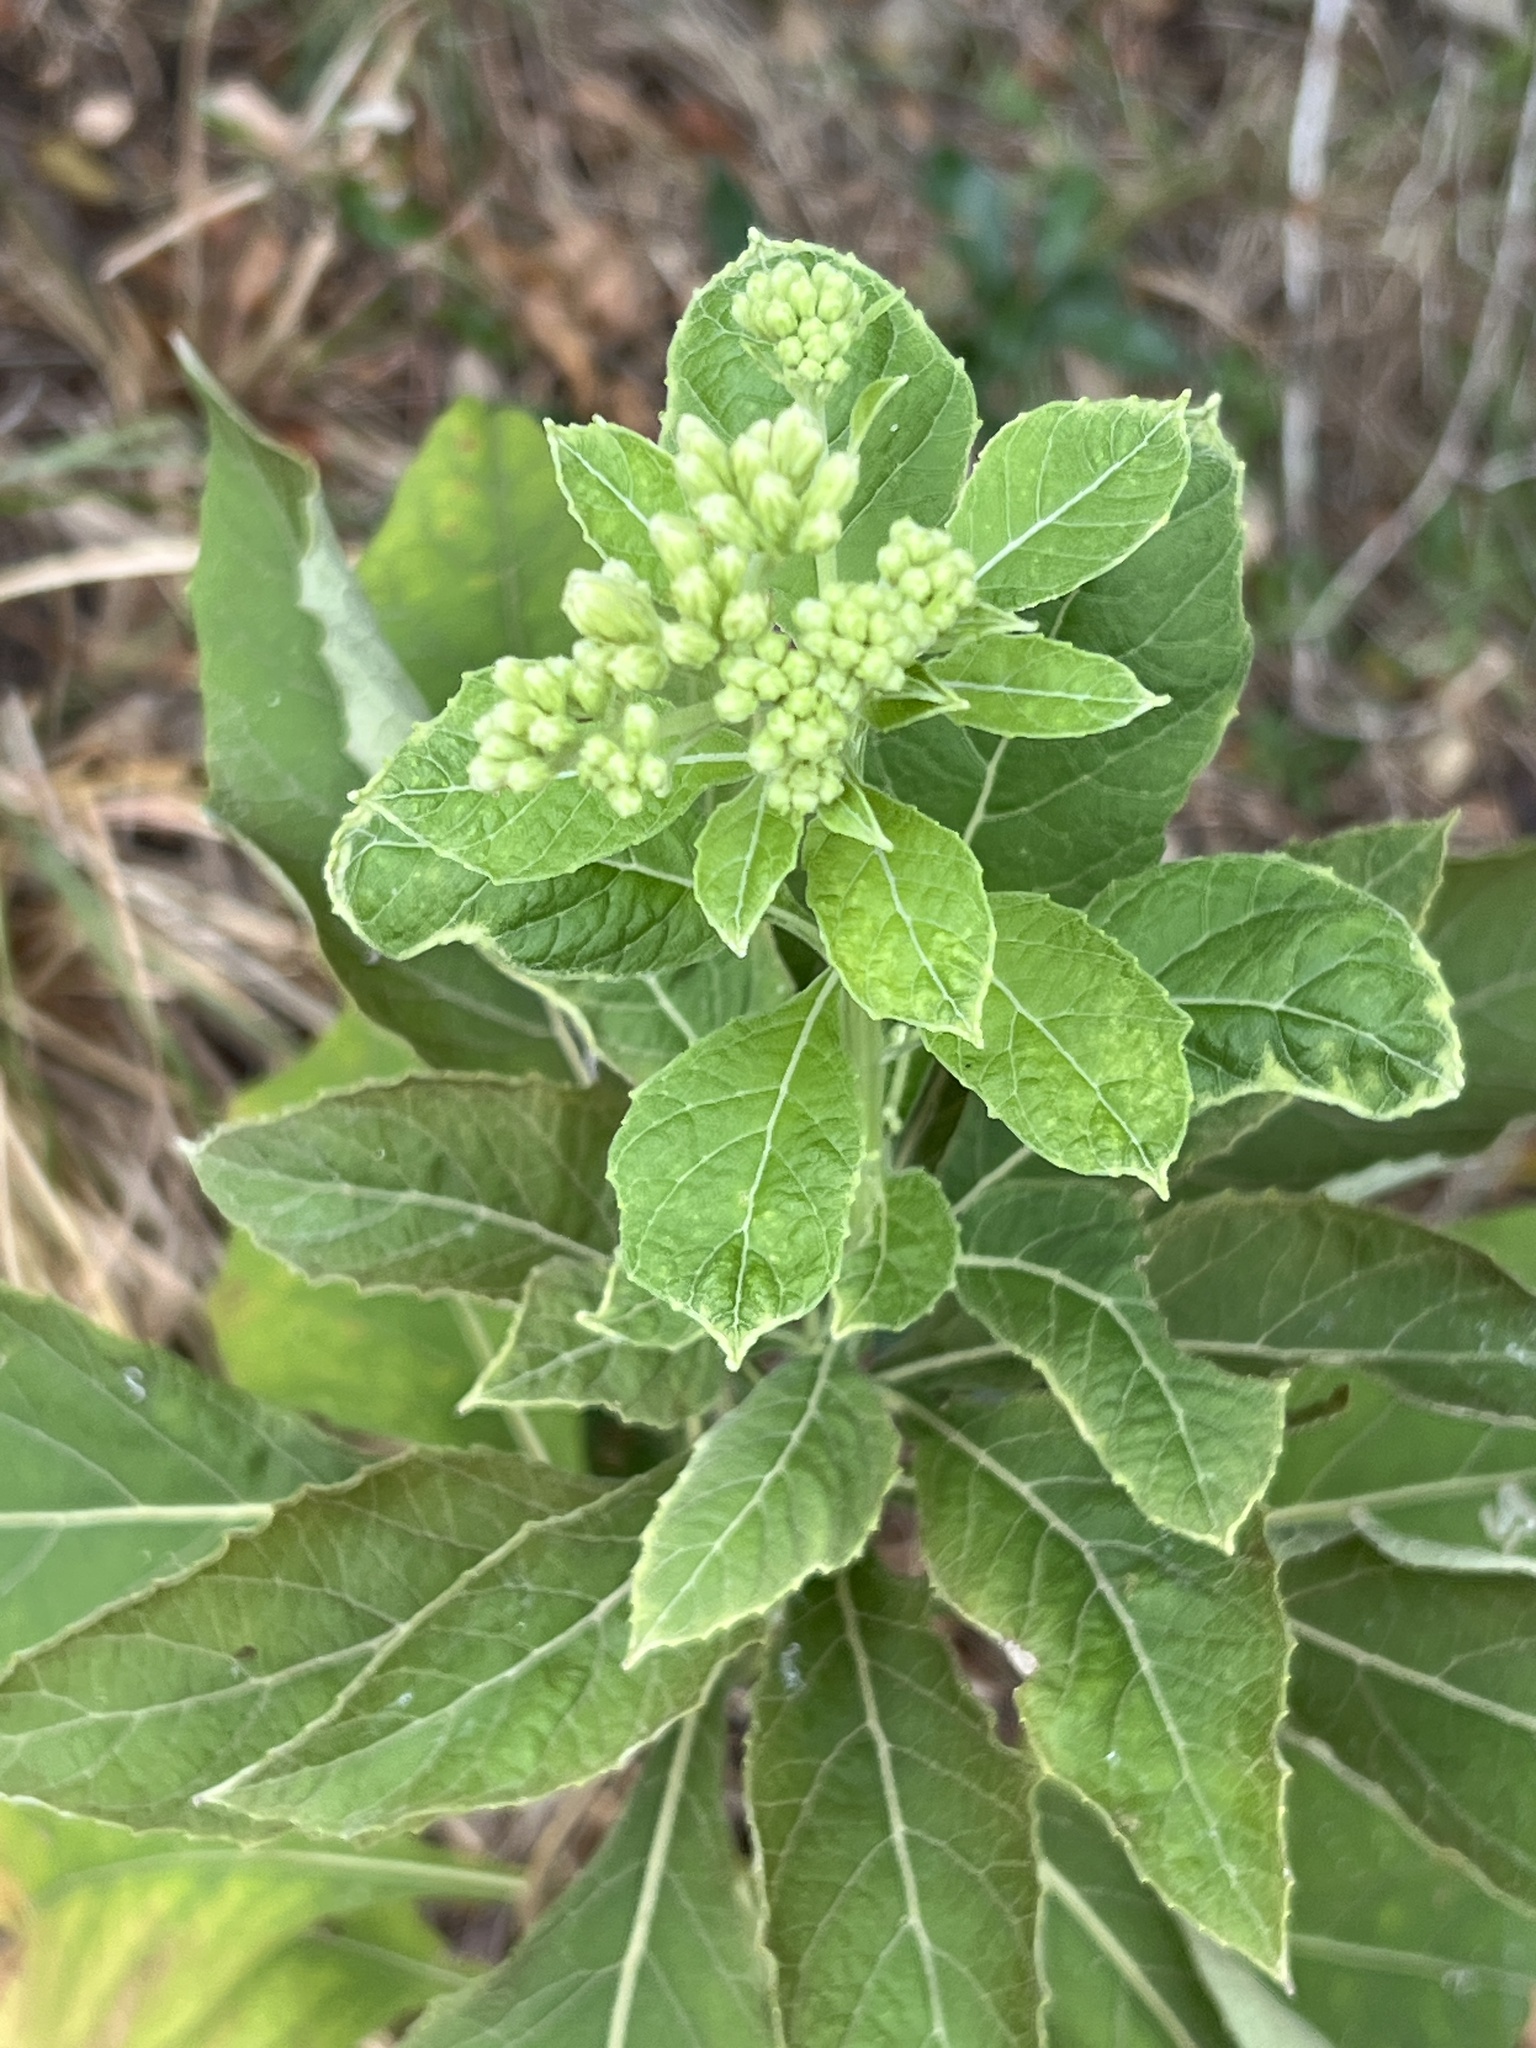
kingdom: Plantae
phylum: Tracheophyta
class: Magnoliopsida
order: Asterales
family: Asteraceae
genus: Verbesina
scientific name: Verbesina virginica
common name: Frostweed
